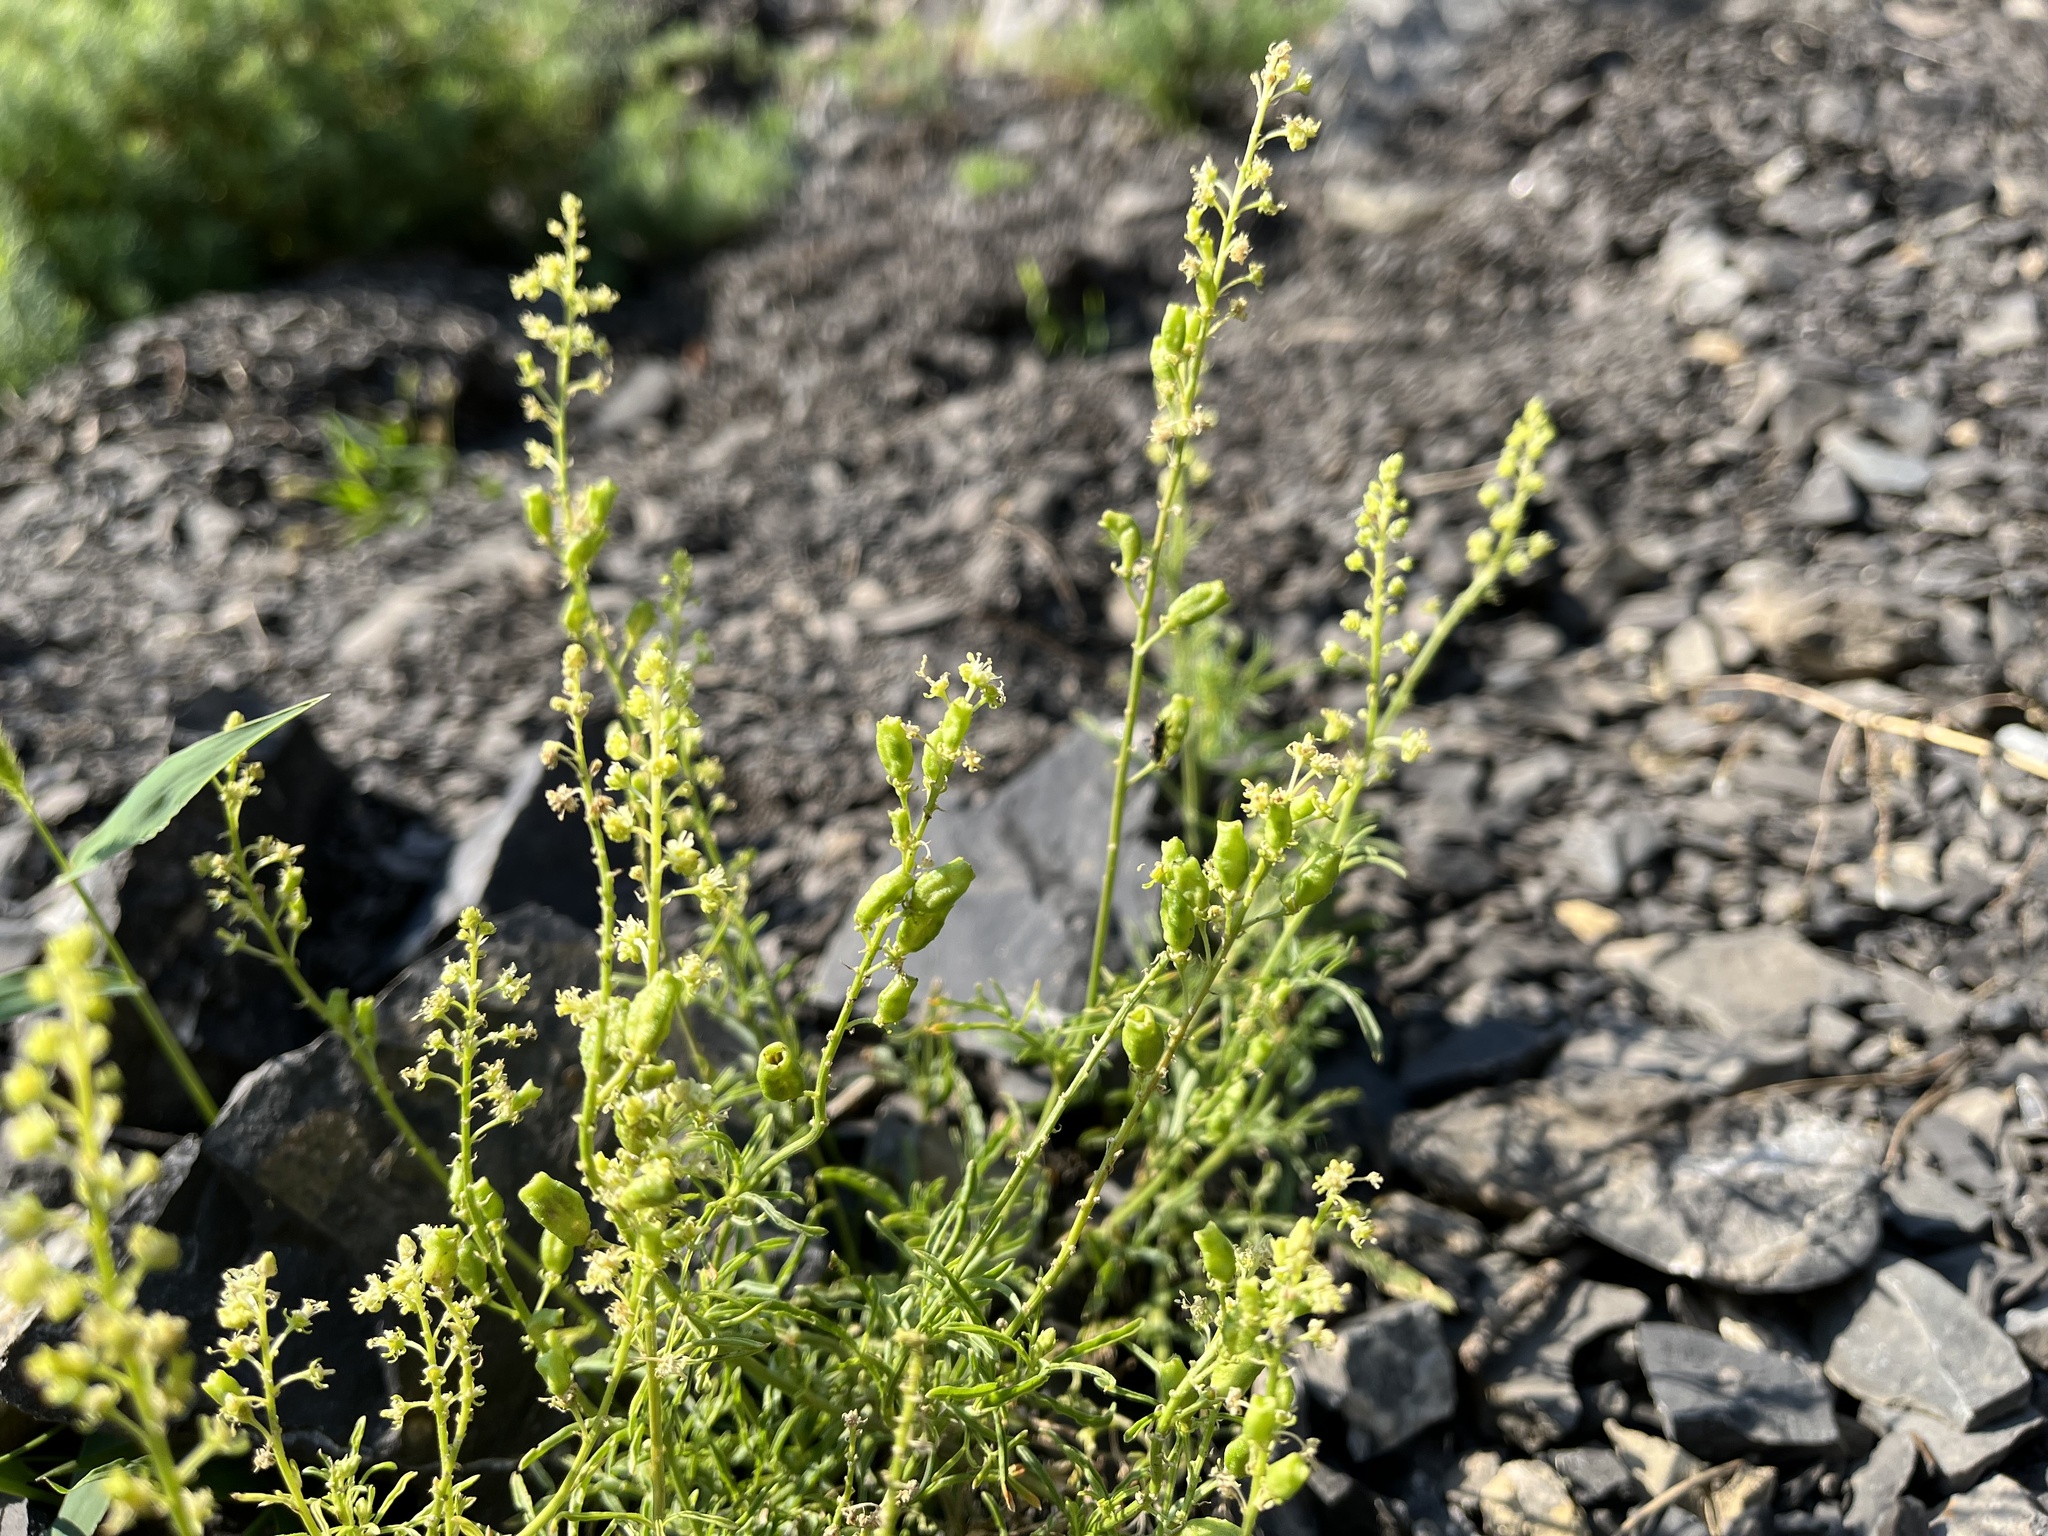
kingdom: Plantae
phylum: Tracheophyta
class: Magnoliopsida
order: Brassicales
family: Resedaceae
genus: Reseda
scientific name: Reseda lutea
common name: Wild mignonette
